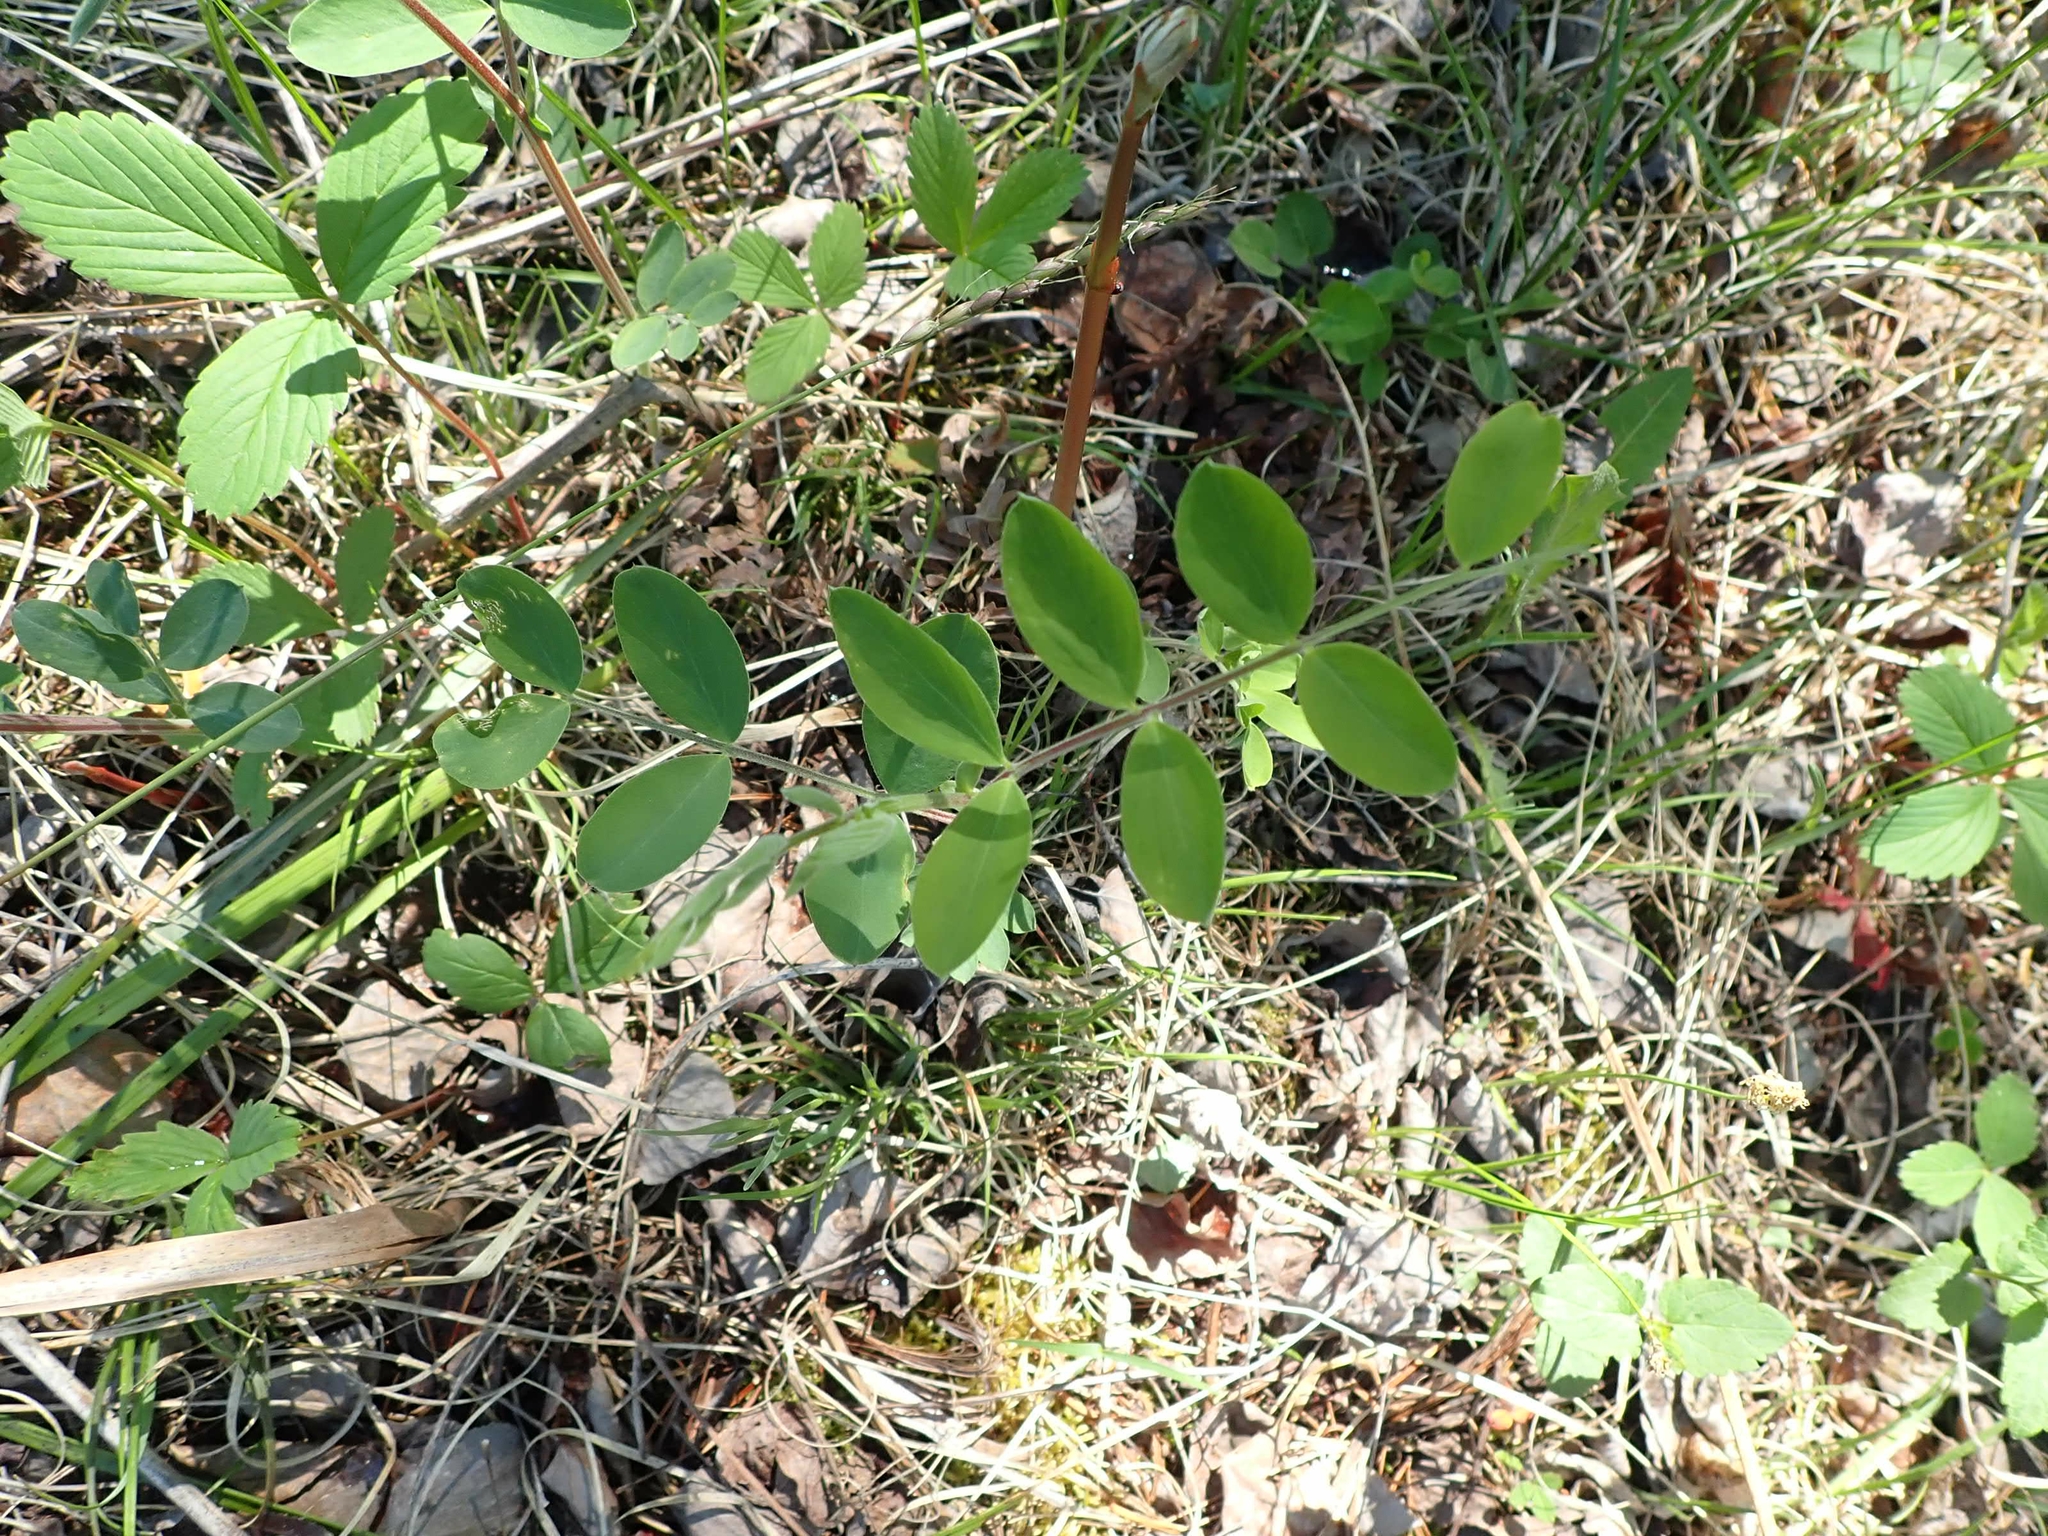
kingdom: Plantae
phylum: Tracheophyta
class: Magnoliopsida
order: Fabales
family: Fabaceae
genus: Lathyrus
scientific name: Lathyrus venosus
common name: Forest-pea
